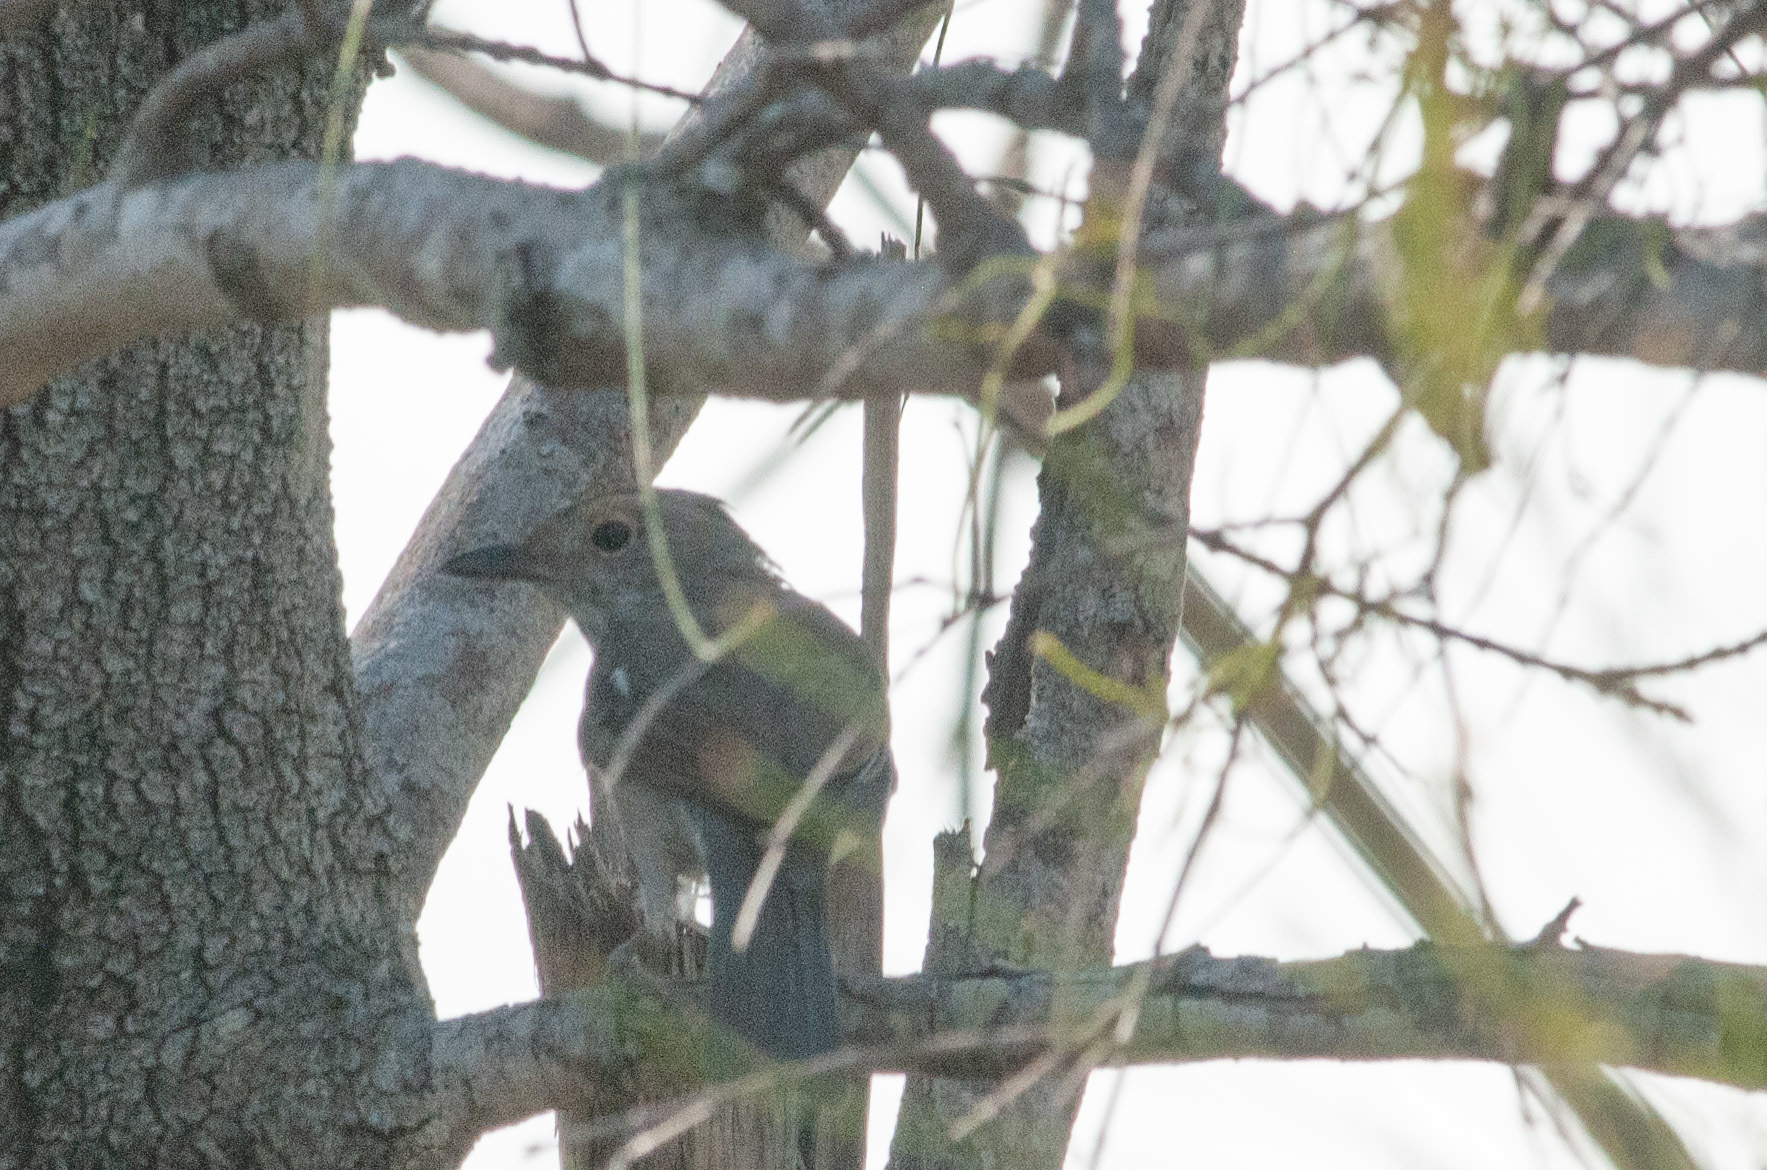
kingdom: Animalia
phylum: Chordata
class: Aves
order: Passeriformes
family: Pachycephalidae
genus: Colluricincla
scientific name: Colluricincla harmonica
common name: Grey shrikethrush
